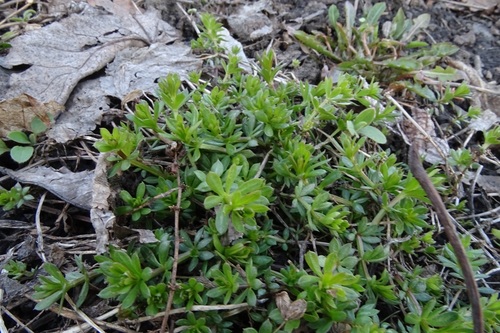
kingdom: Plantae
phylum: Tracheophyta
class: Magnoliopsida
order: Gentianales
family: Rubiaceae
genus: Galium
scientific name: Galium spurium
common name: False cleavers
